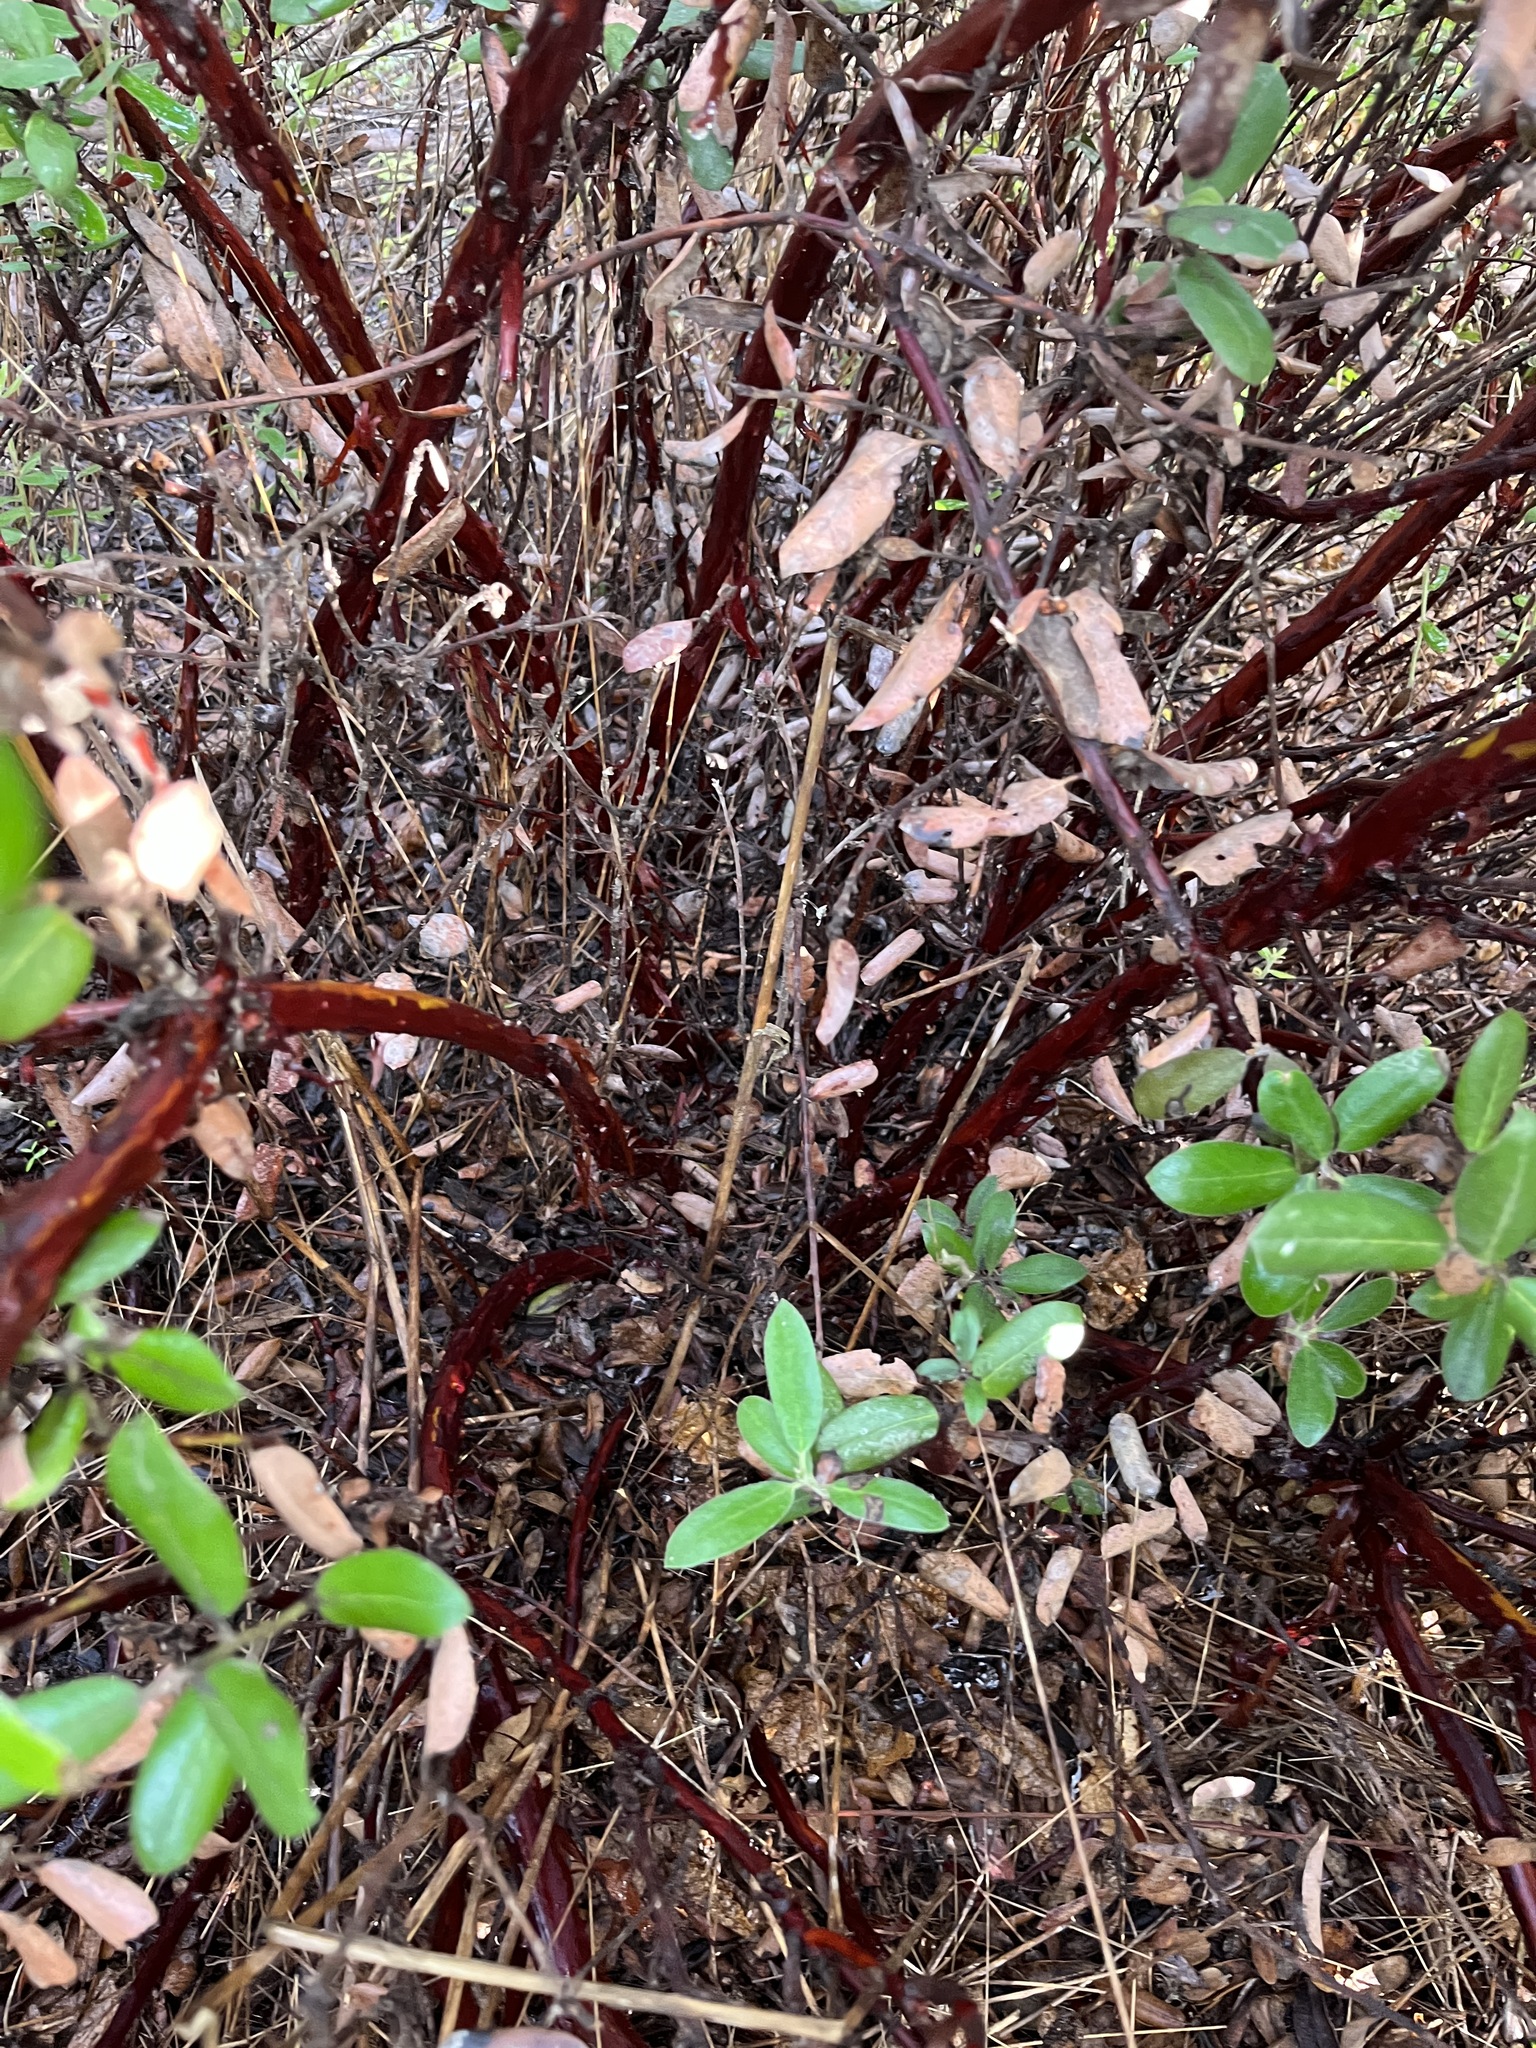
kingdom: Plantae
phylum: Tracheophyta
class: Magnoliopsida
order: Ericales
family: Ericaceae
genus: Arctostaphylos
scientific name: Arctostaphylos tomentosa
